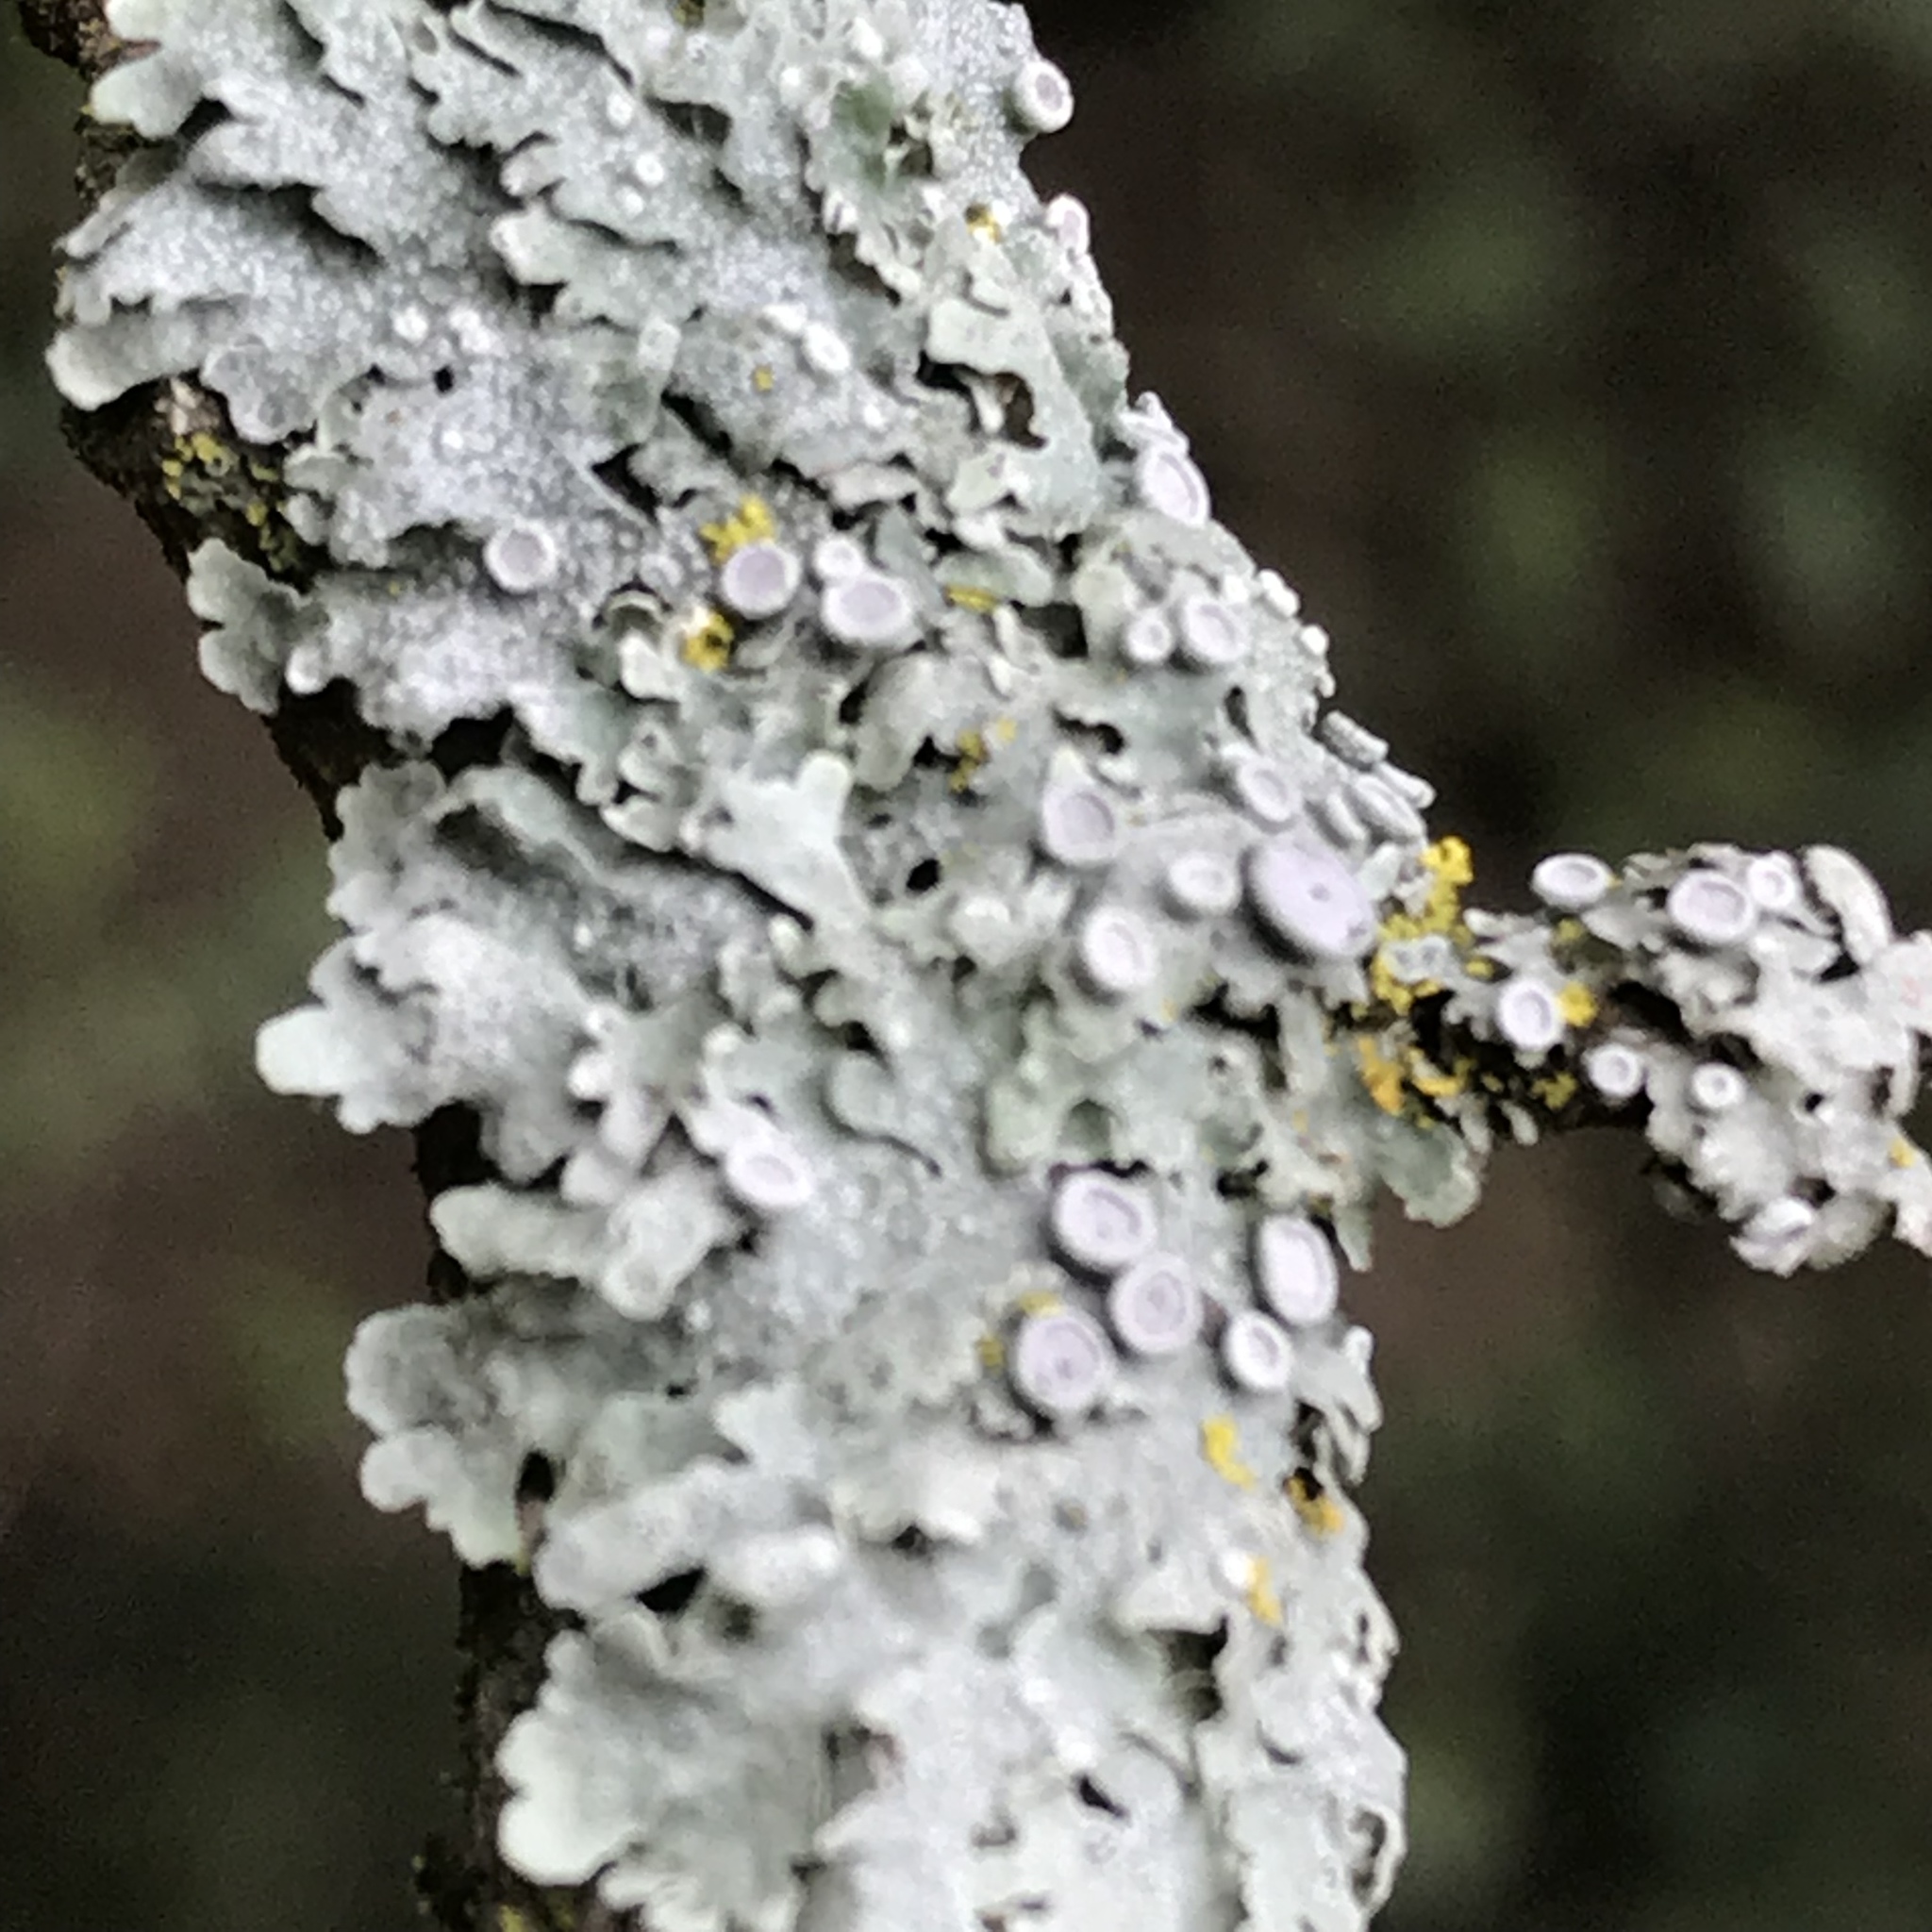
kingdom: Fungi
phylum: Ascomycota
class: Lecanoromycetes
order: Caliciales
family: Physciaceae
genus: Physcia
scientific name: Physcia aipolia
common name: Hoary rosette lichen
